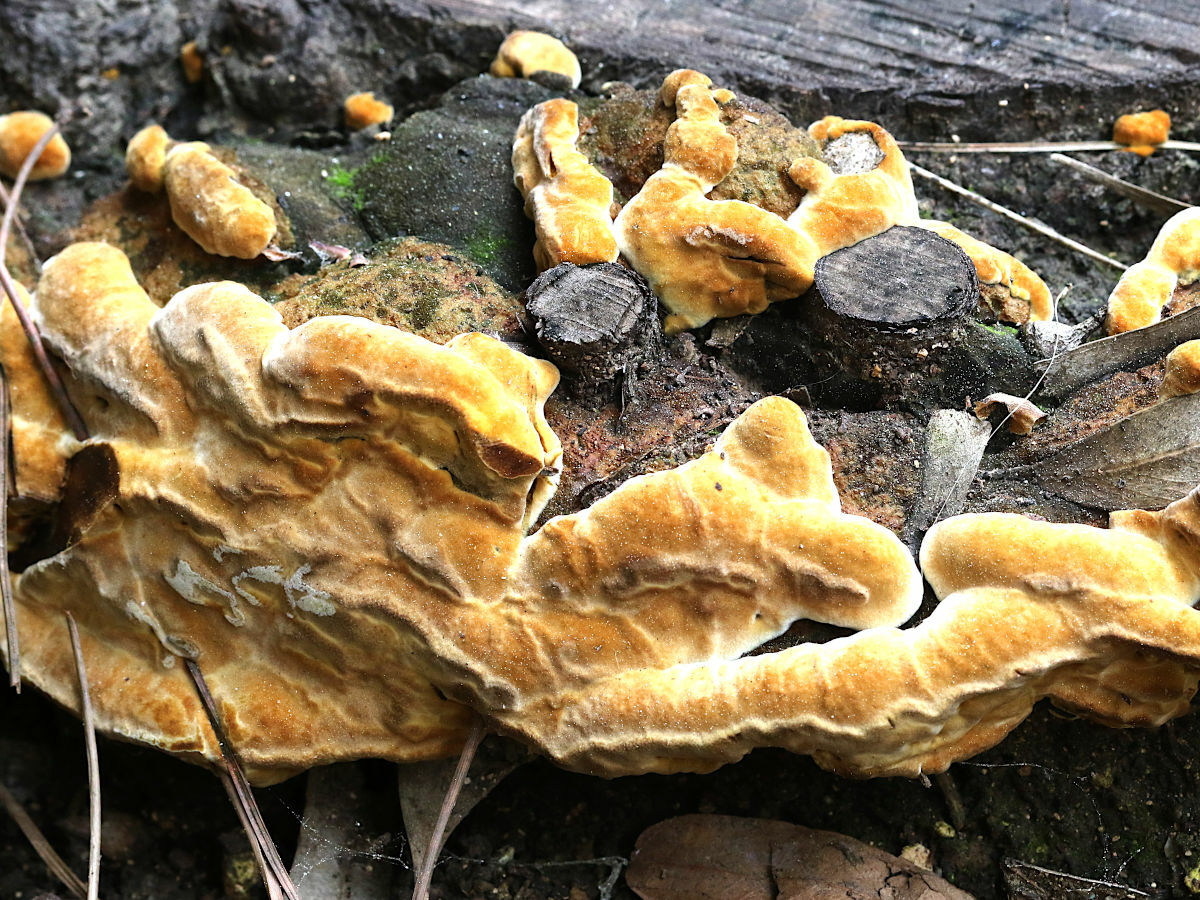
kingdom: Fungi
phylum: Basidiomycota
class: Agaricomycetes
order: Hymenochaetales
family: Hymenochaetaceae
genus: Fuscoporia
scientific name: Fuscoporia torulosa
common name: Tufted bracket
